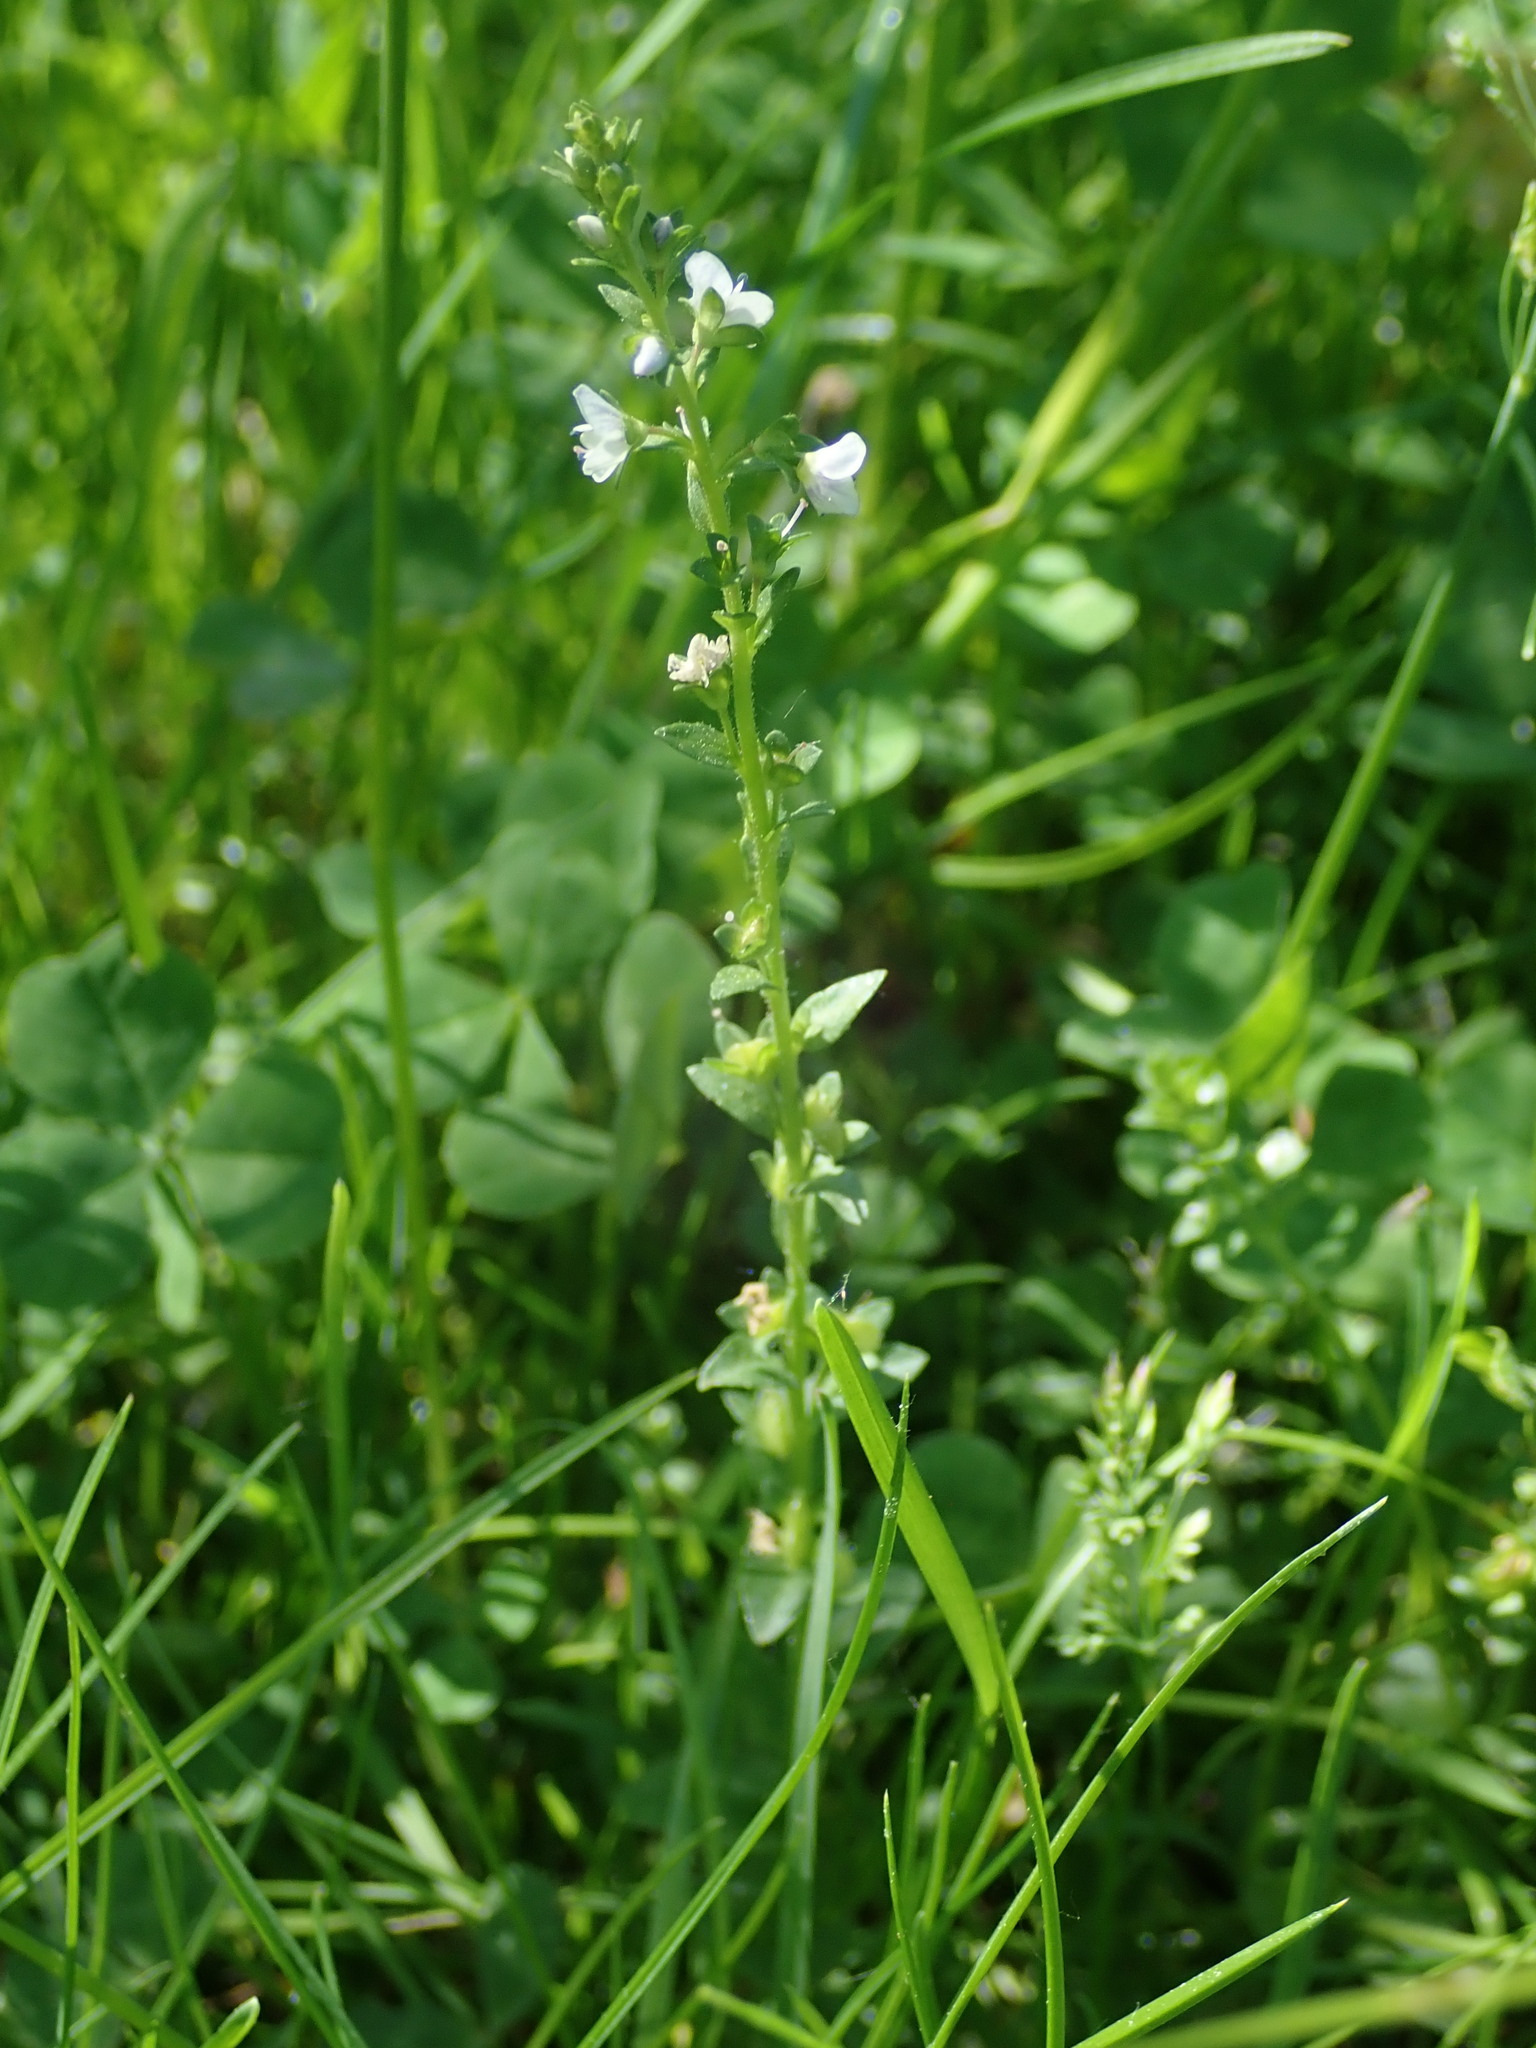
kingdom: Plantae
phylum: Tracheophyta
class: Magnoliopsida
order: Lamiales
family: Plantaginaceae
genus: Veronica
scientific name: Veronica serpyllifolia
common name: Thyme-leaved speedwell
